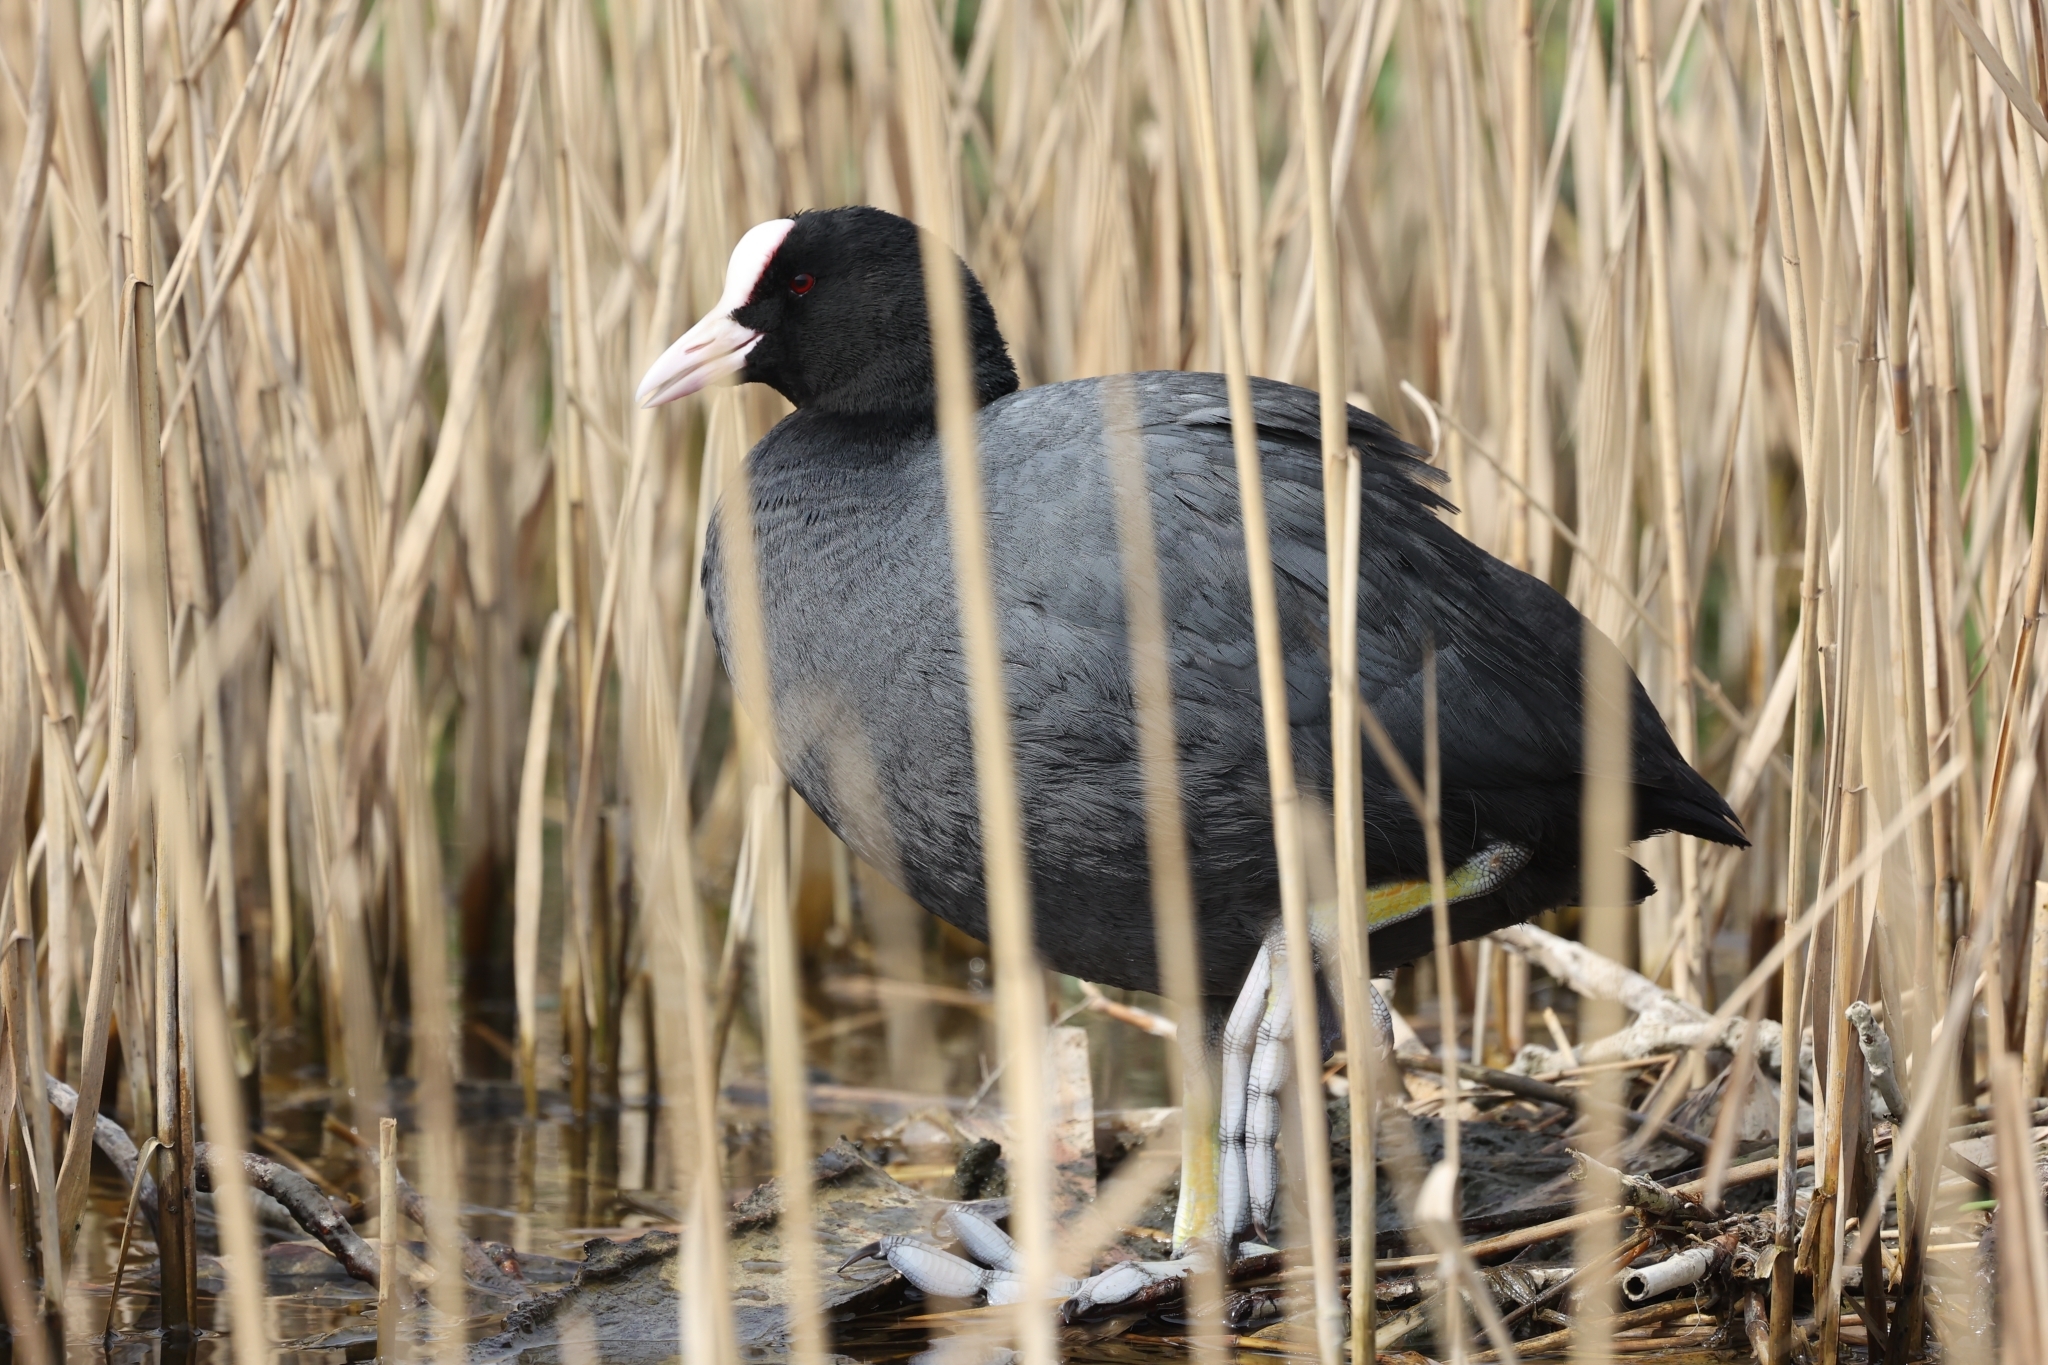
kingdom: Animalia
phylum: Chordata
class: Aves
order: Gruiformes
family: Rallidae
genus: Fulica
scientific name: Fulica atra
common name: Eurasian coot
